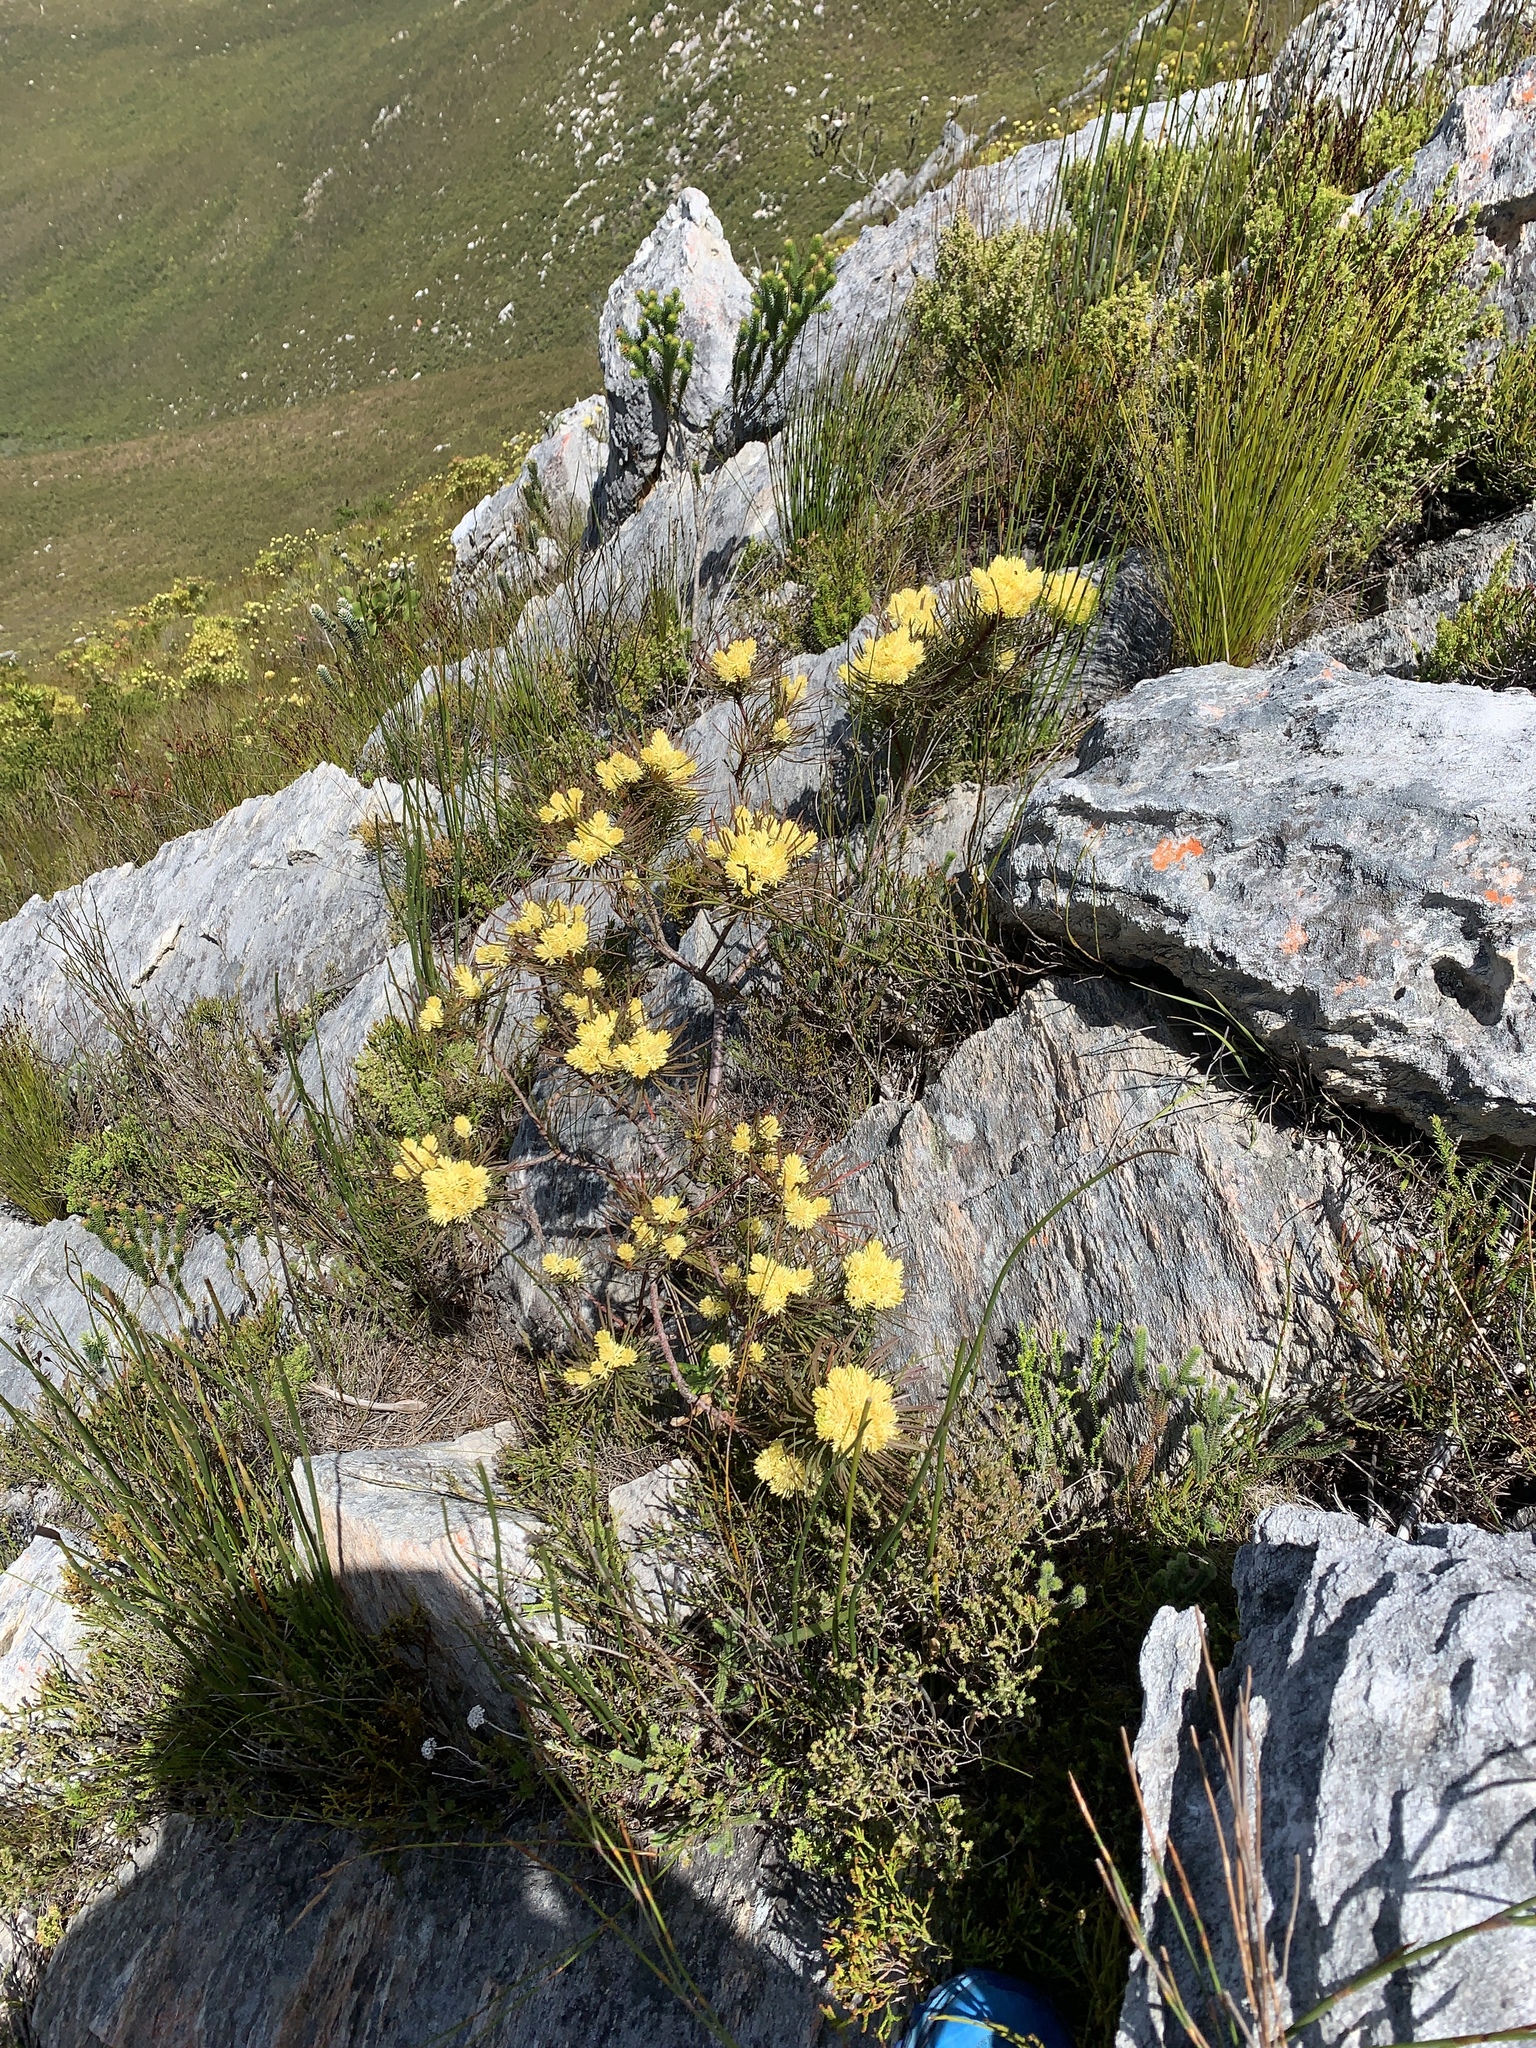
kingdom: Plantae
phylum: Tracheophyta
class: Magnoliopsida
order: Proteales
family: Proteaceae
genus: Aulax
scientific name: Aulax cancellata
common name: Channel-leaf featherbush
